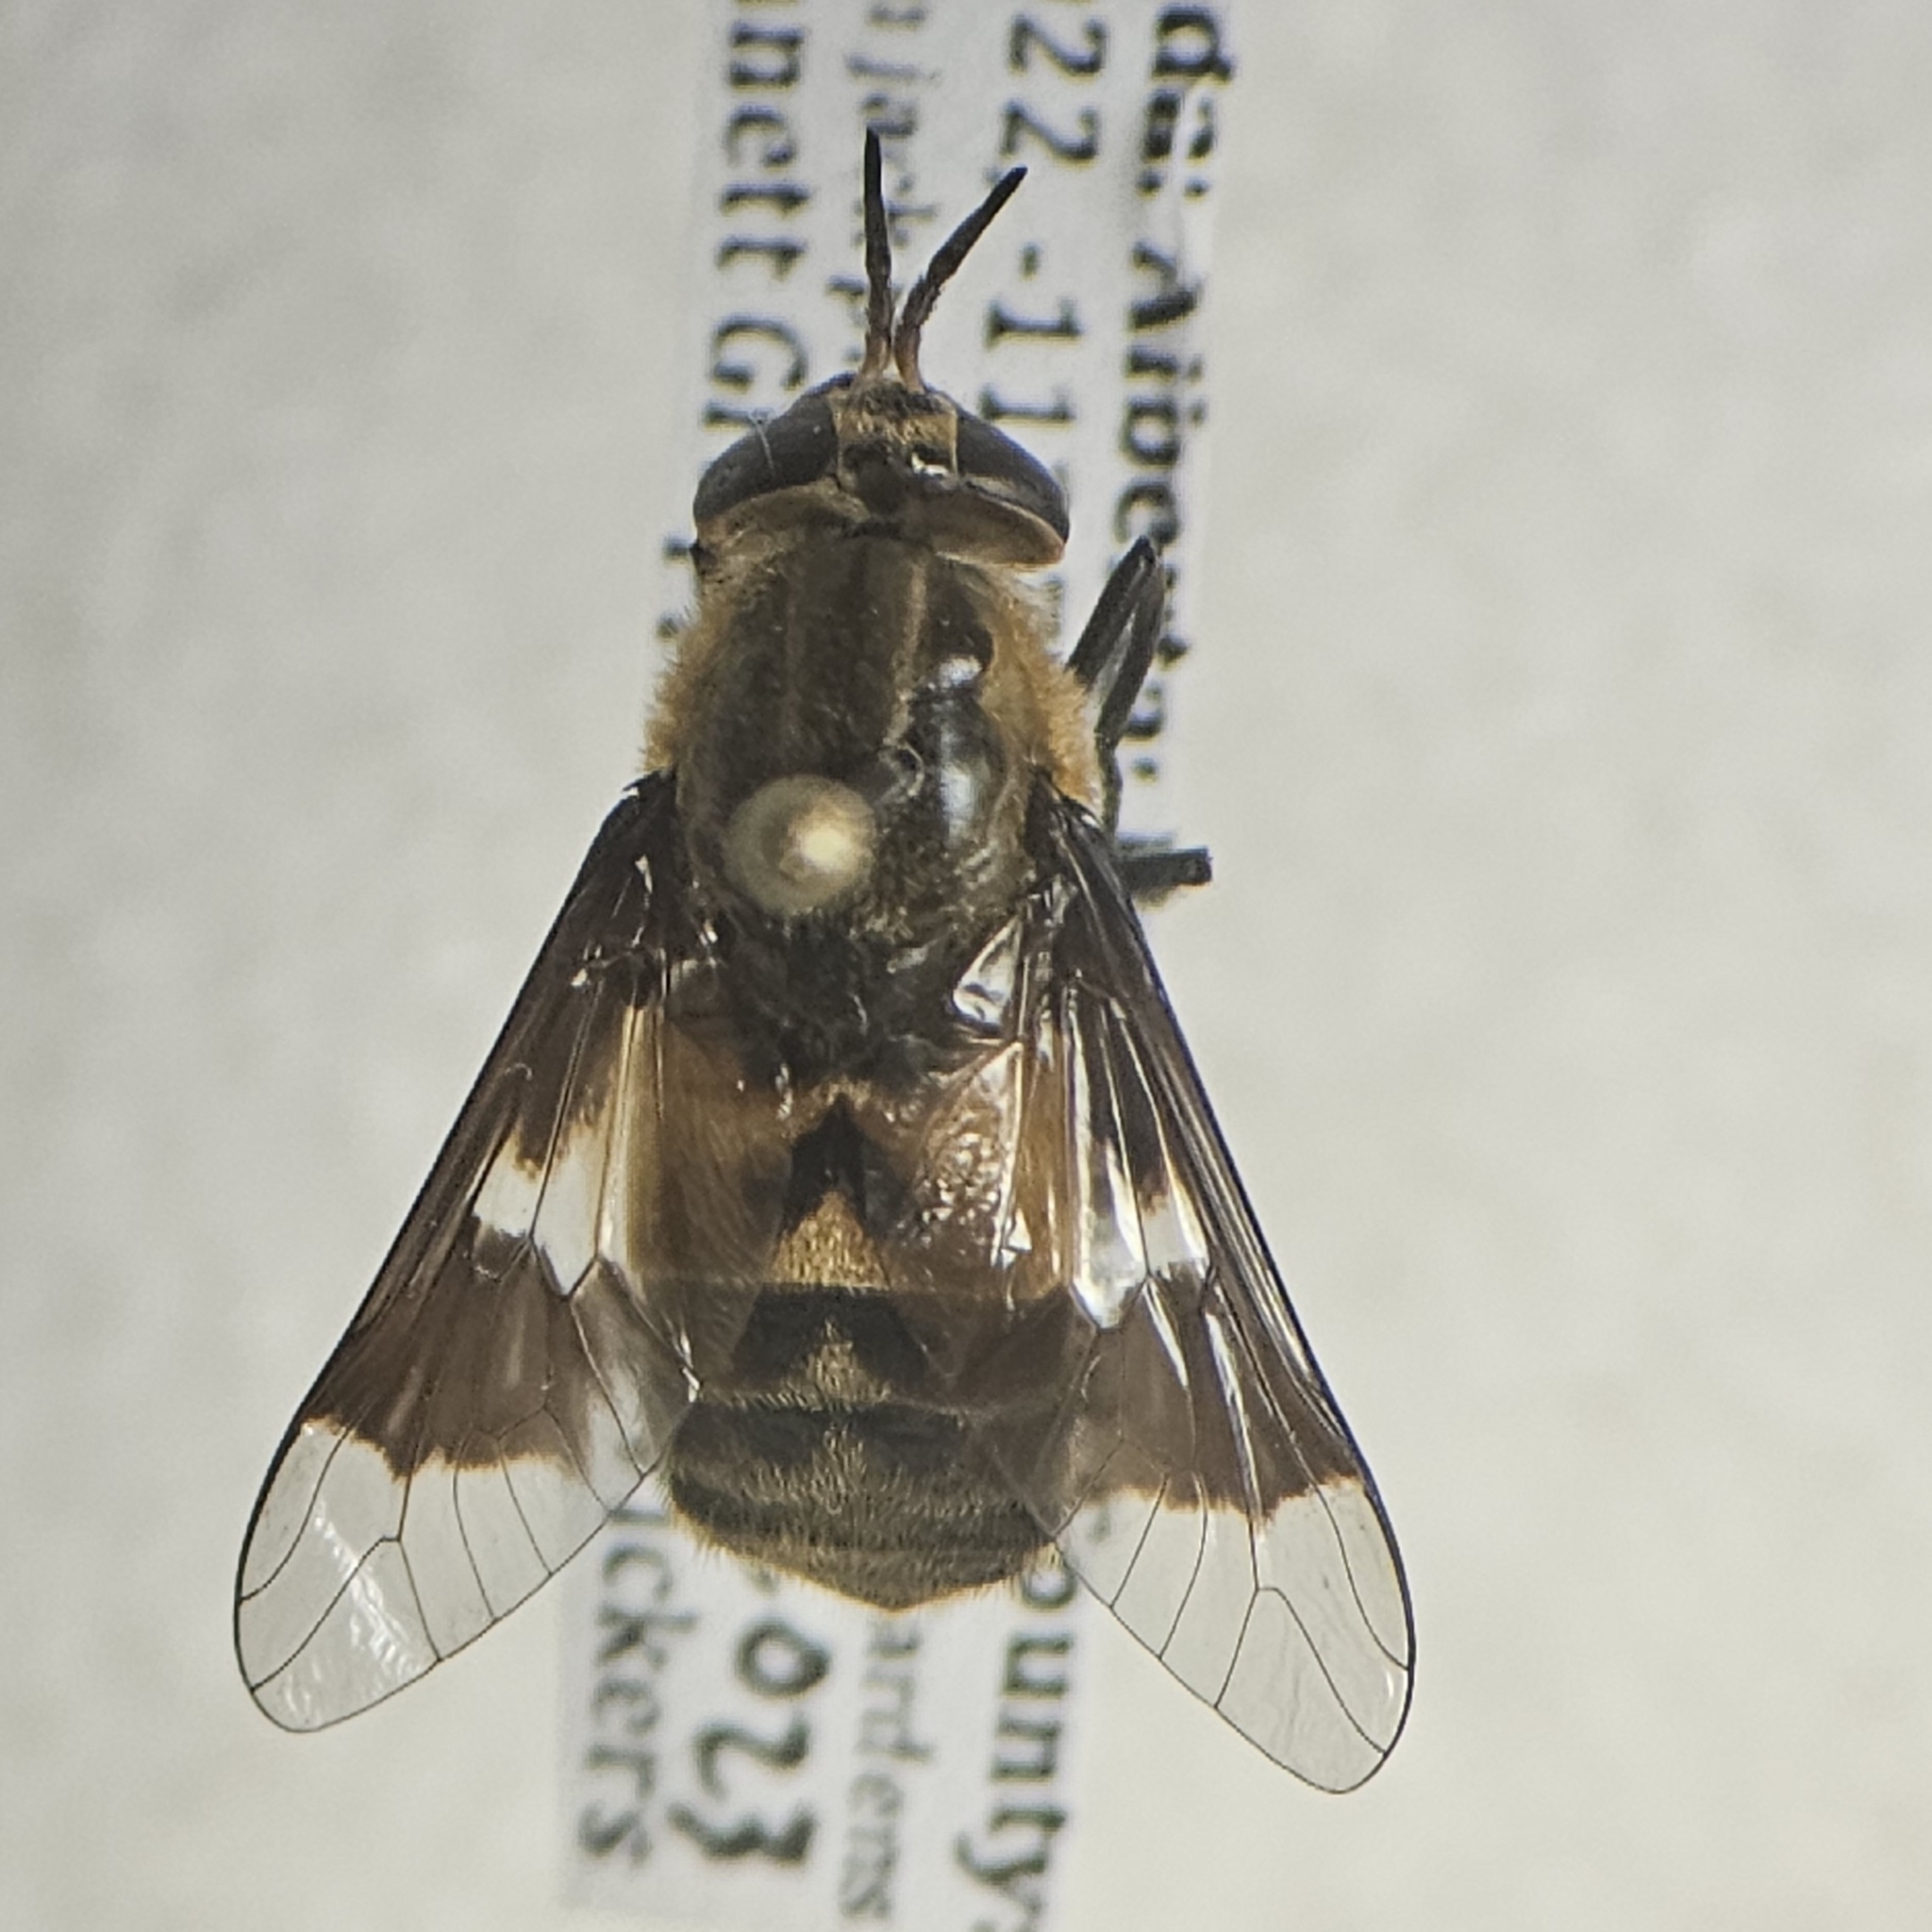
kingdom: Animalia
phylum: Arthropoda
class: Insecta
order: Diptera
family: Tabanidae
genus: Chrysops
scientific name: Chrysops excitans
